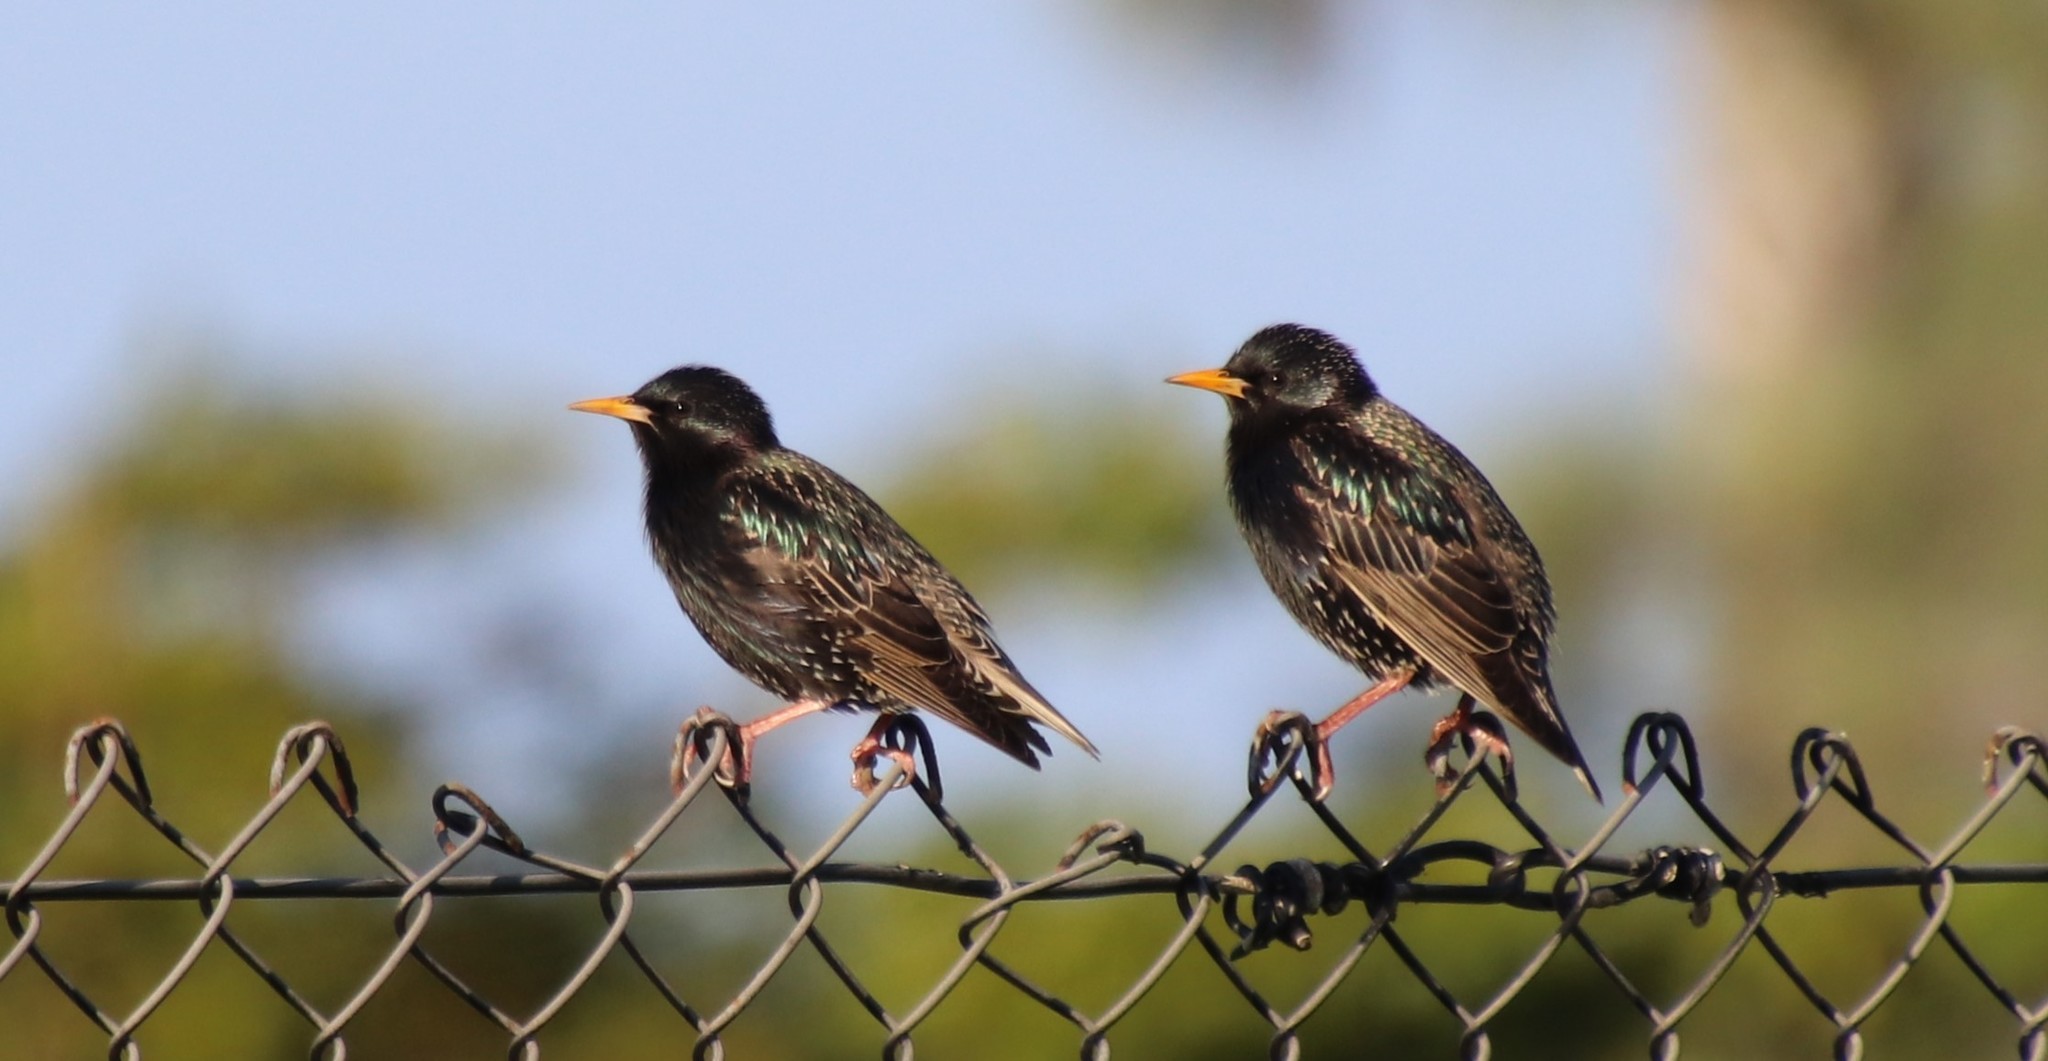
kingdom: Animalia
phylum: Chordata
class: Aves
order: Passeriformes
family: Sturnidae
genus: Sturnus
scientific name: Sturnus vulgaris
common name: Common starling
